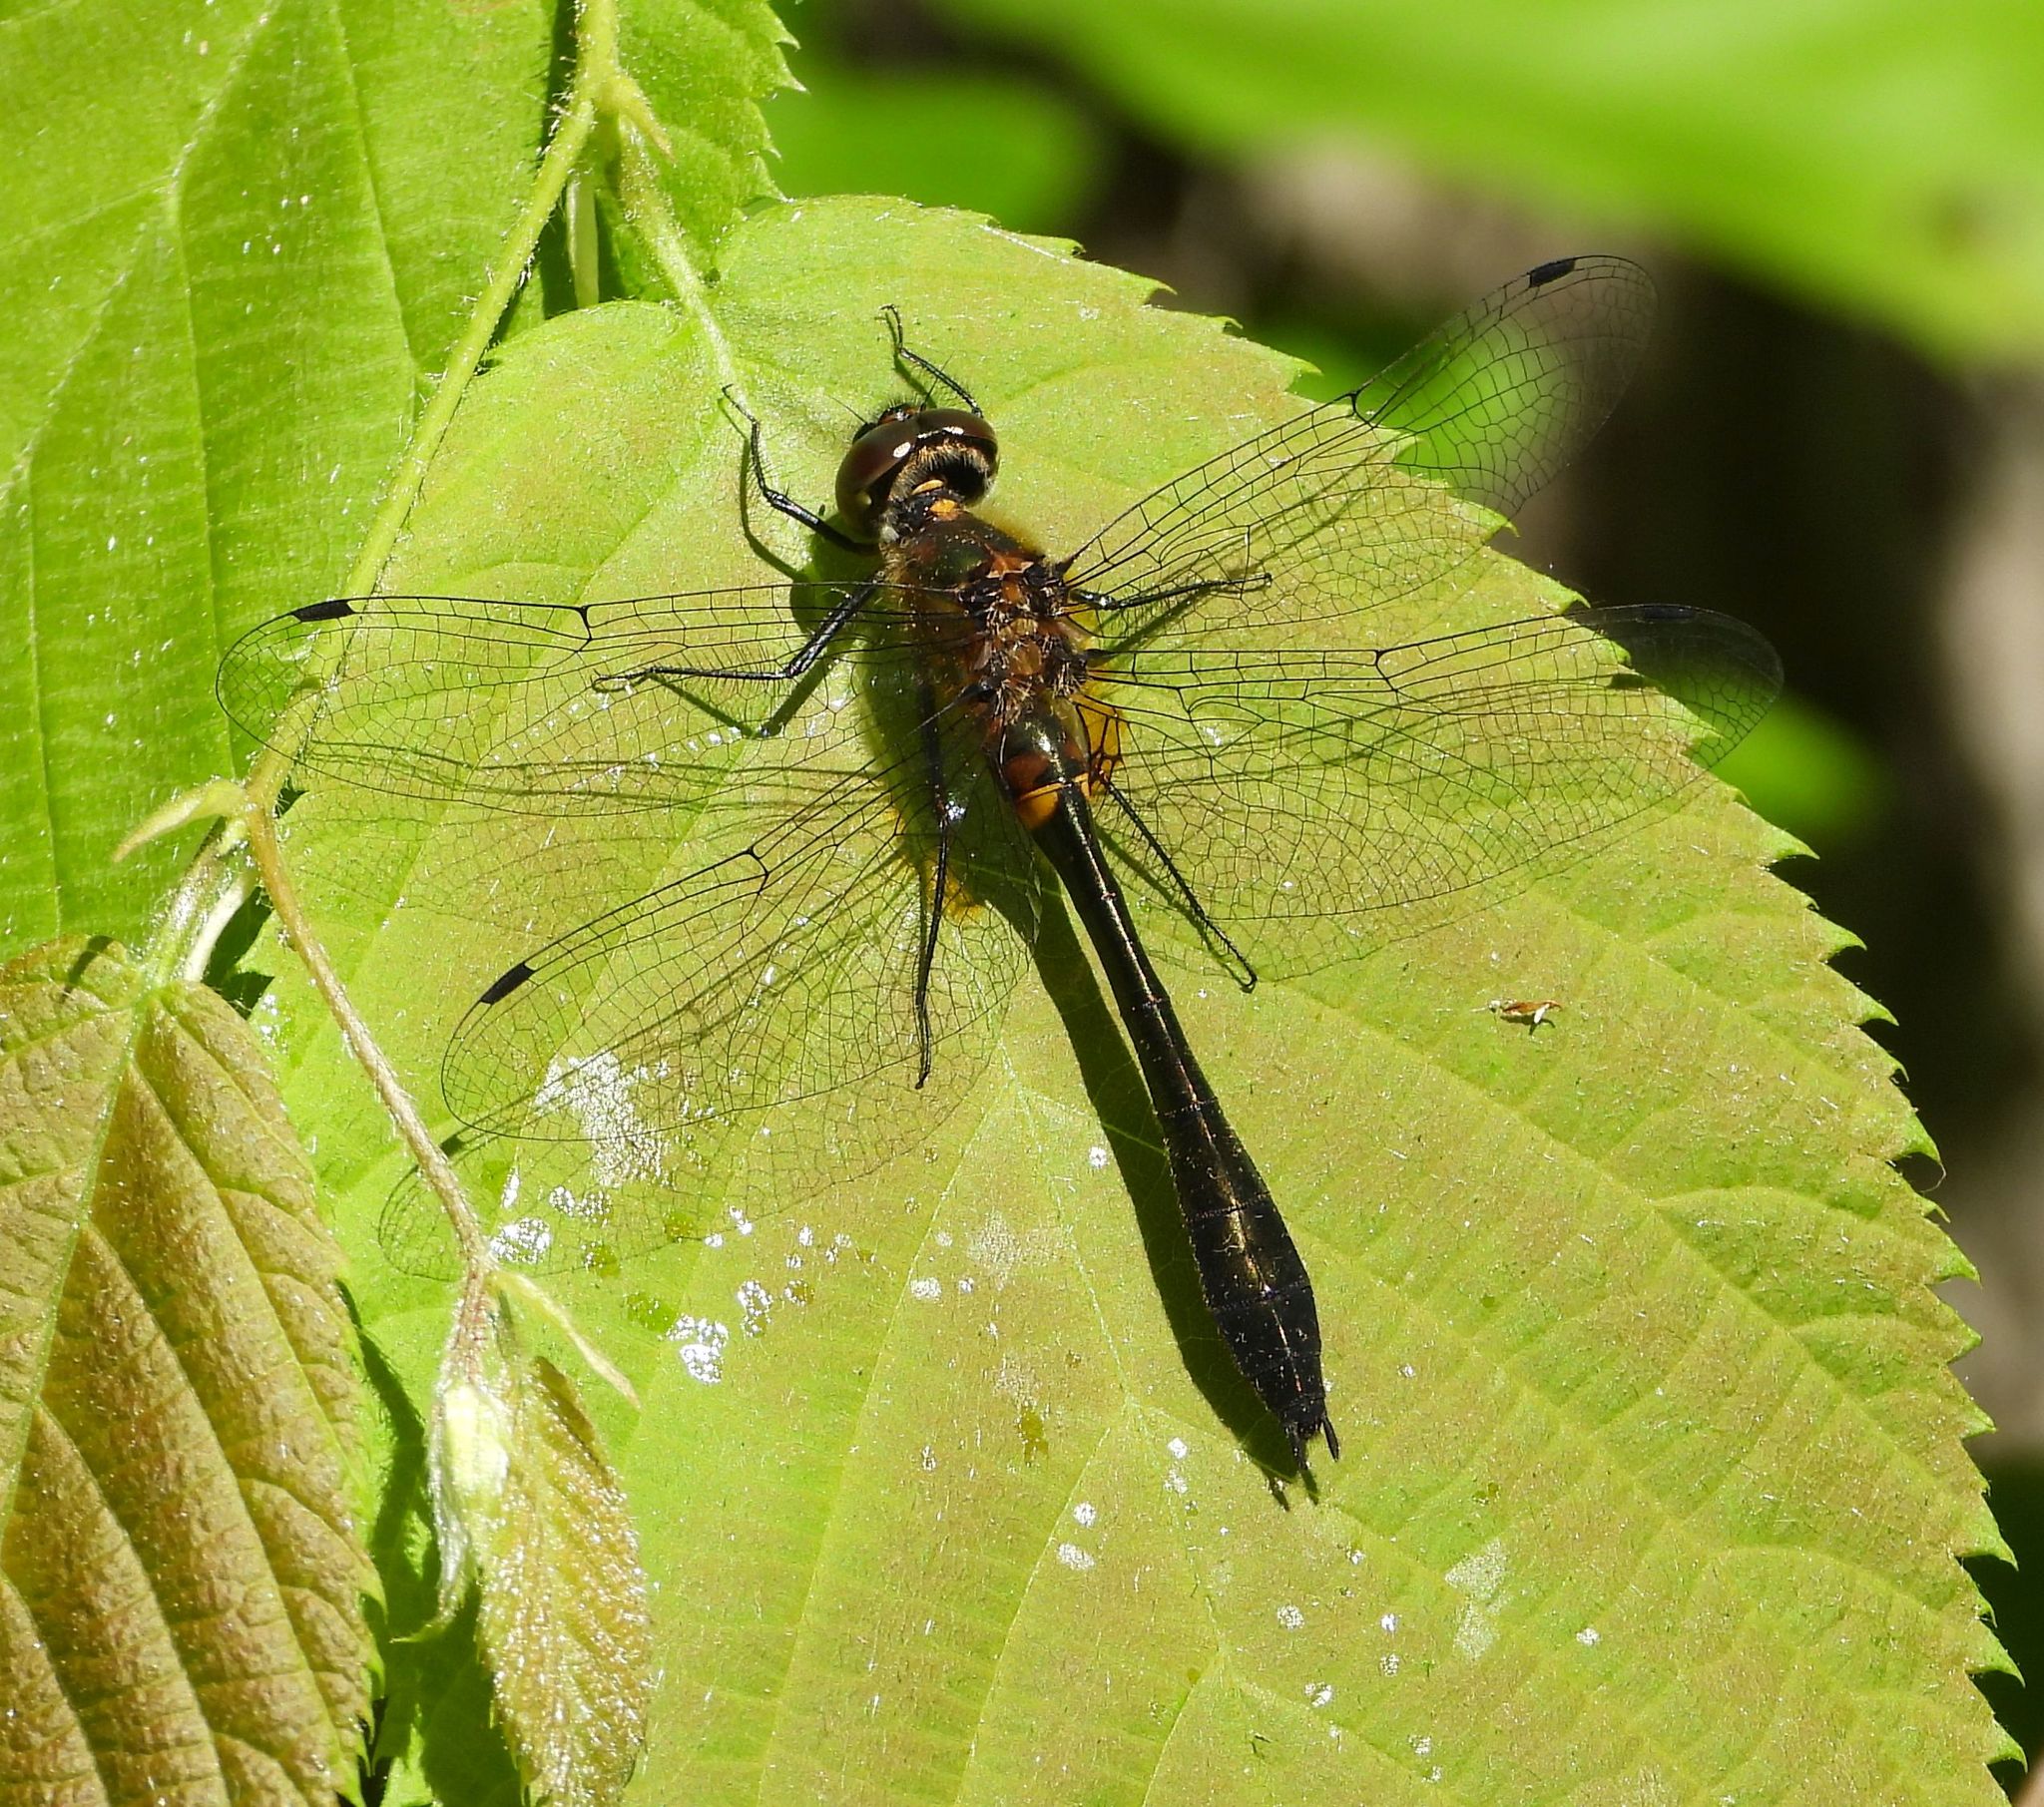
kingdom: Animalia
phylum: Arthropoda
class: Insecta
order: Odonata
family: Corduliidae
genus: Dorocordulia
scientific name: Dorocordulia libera
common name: Racket-tailed emerald
